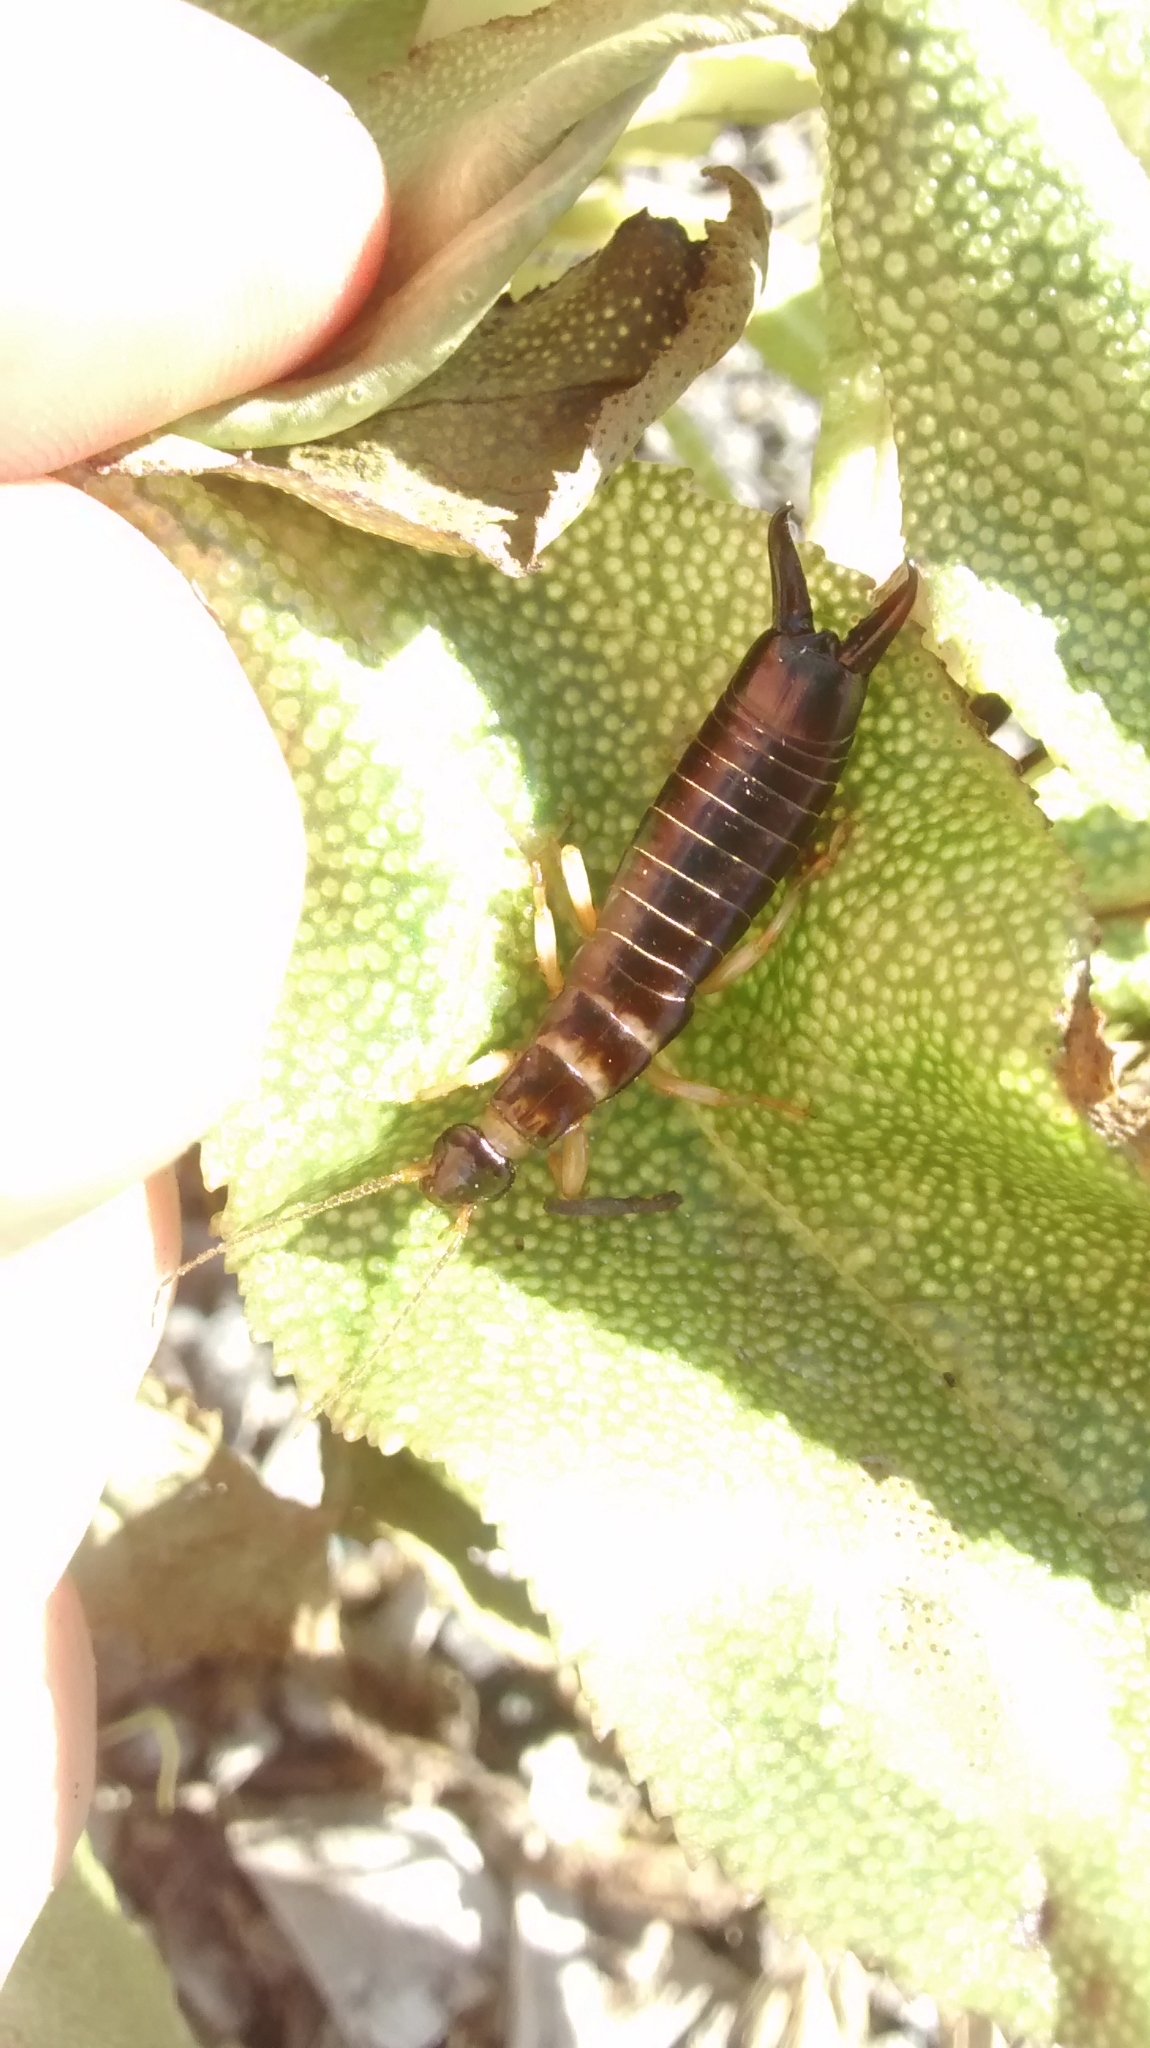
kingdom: Animalia
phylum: Arthropoda
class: Insecta
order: Dermaptera
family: Anisolabididae
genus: Anisolabis
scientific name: Anisolabis littorea
